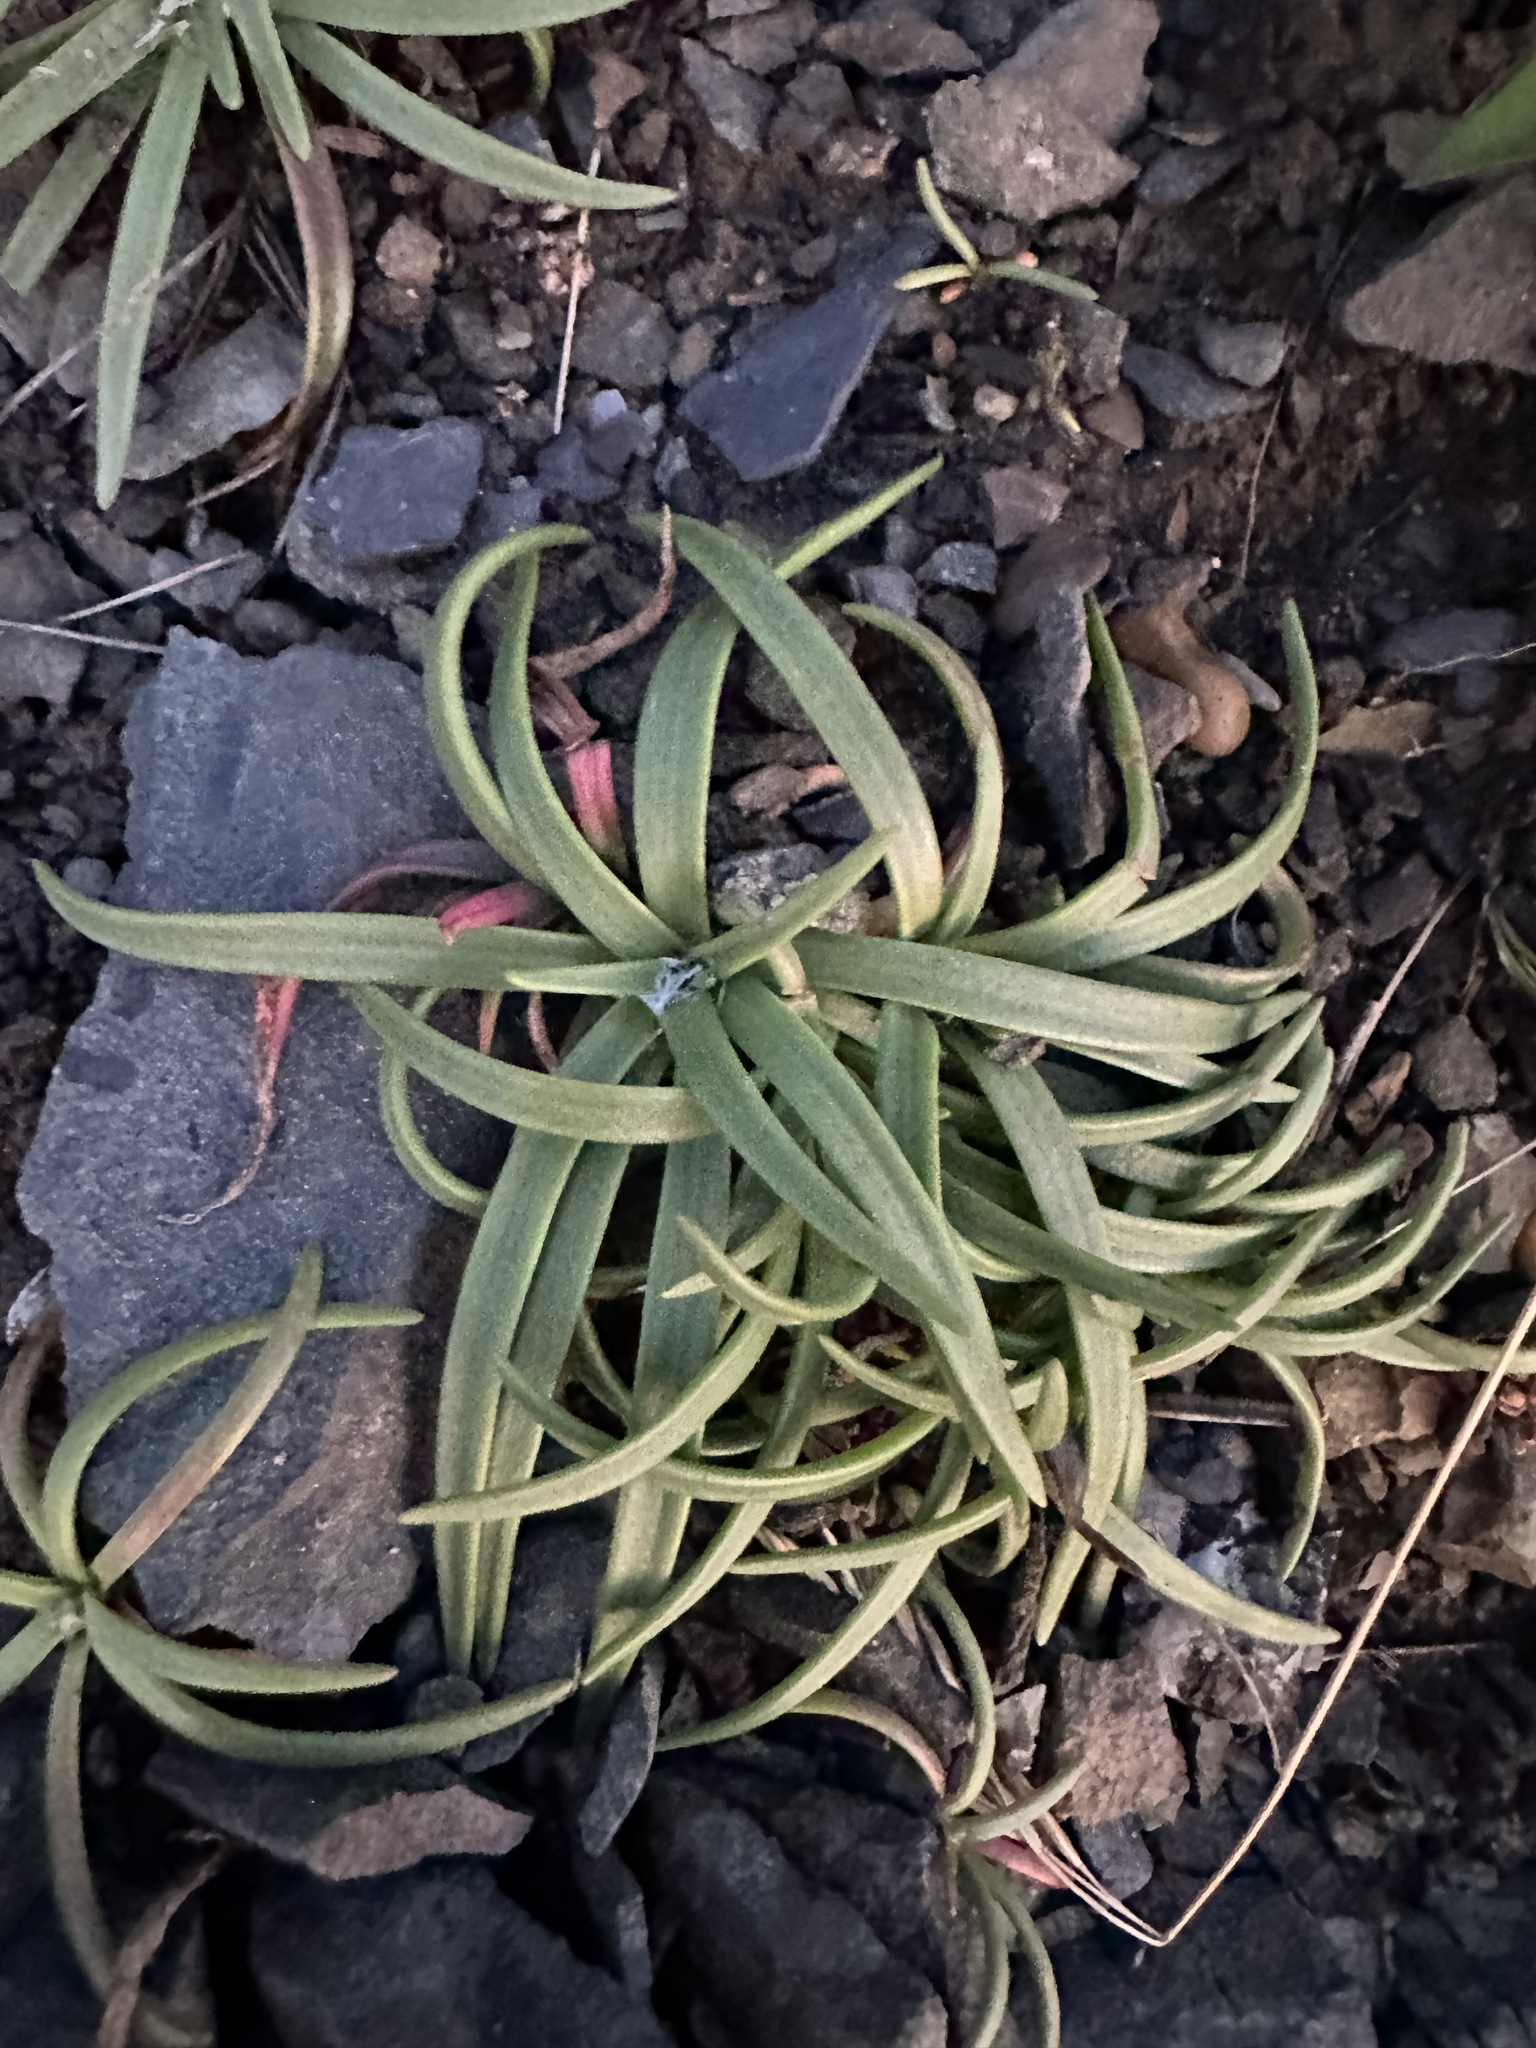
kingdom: Plantae
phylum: Tracheophyta
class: Magnoliopsida
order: Lamiales
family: Plantaginaceae
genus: Plantago
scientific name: Plantago maritima
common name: Sea plantain
